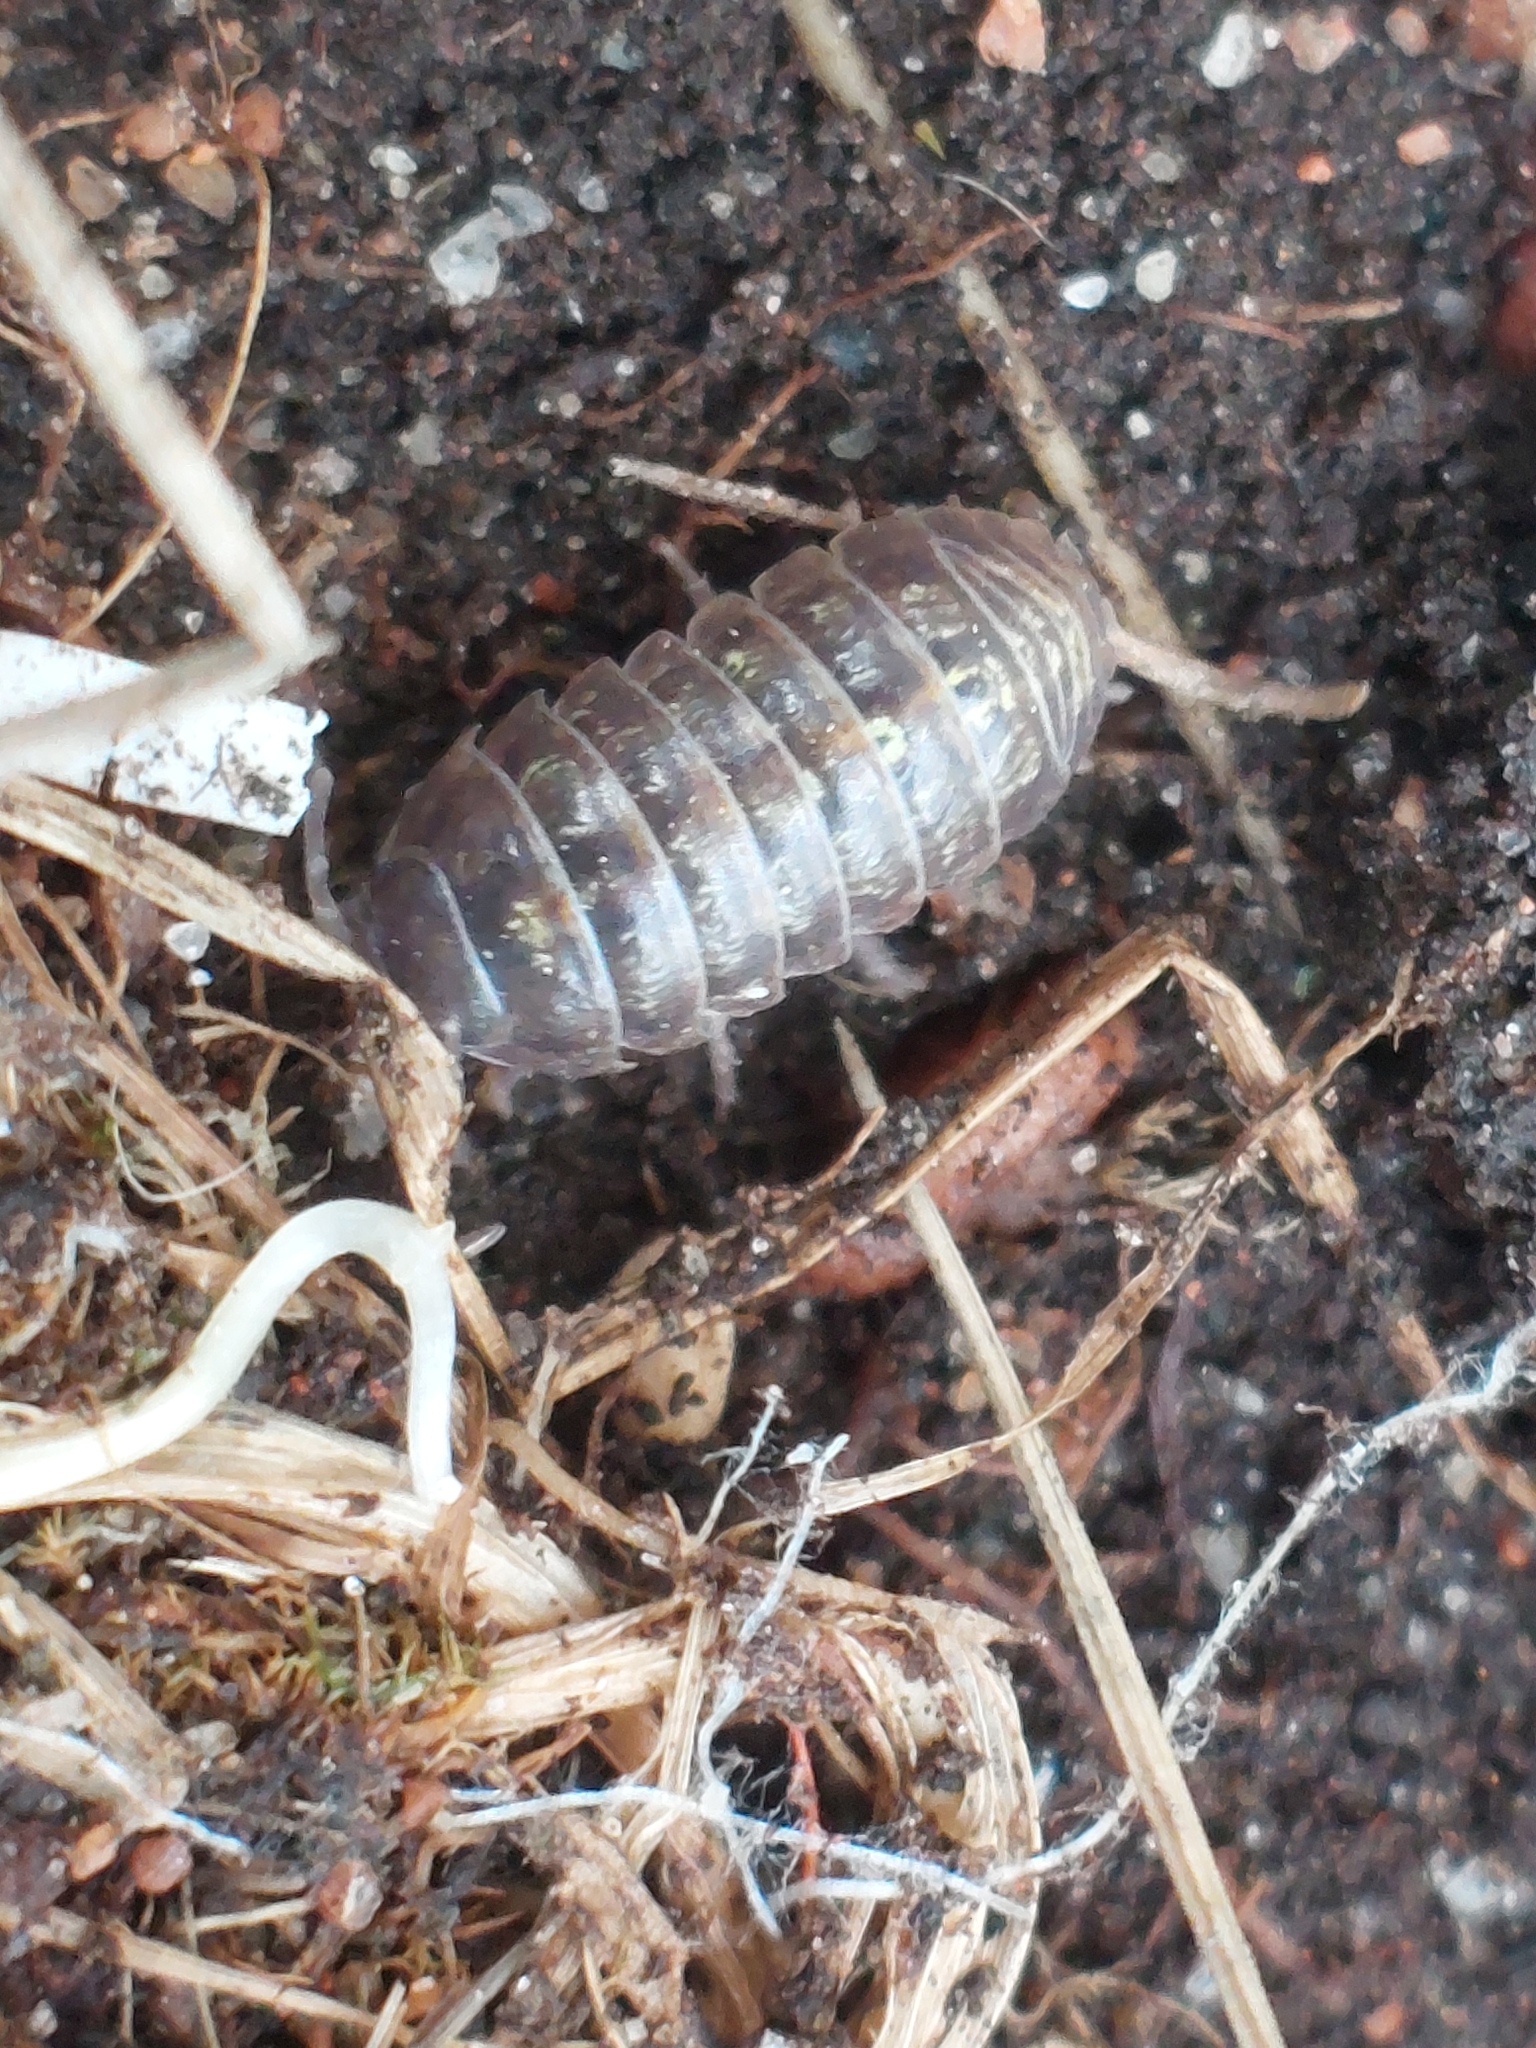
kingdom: Animalia
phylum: Arthropoda
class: Malacostraca
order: Isopoda
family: Armadillidiidae
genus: Armadillidium
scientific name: Armadillidium vulgare
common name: Common pill woodlouse
